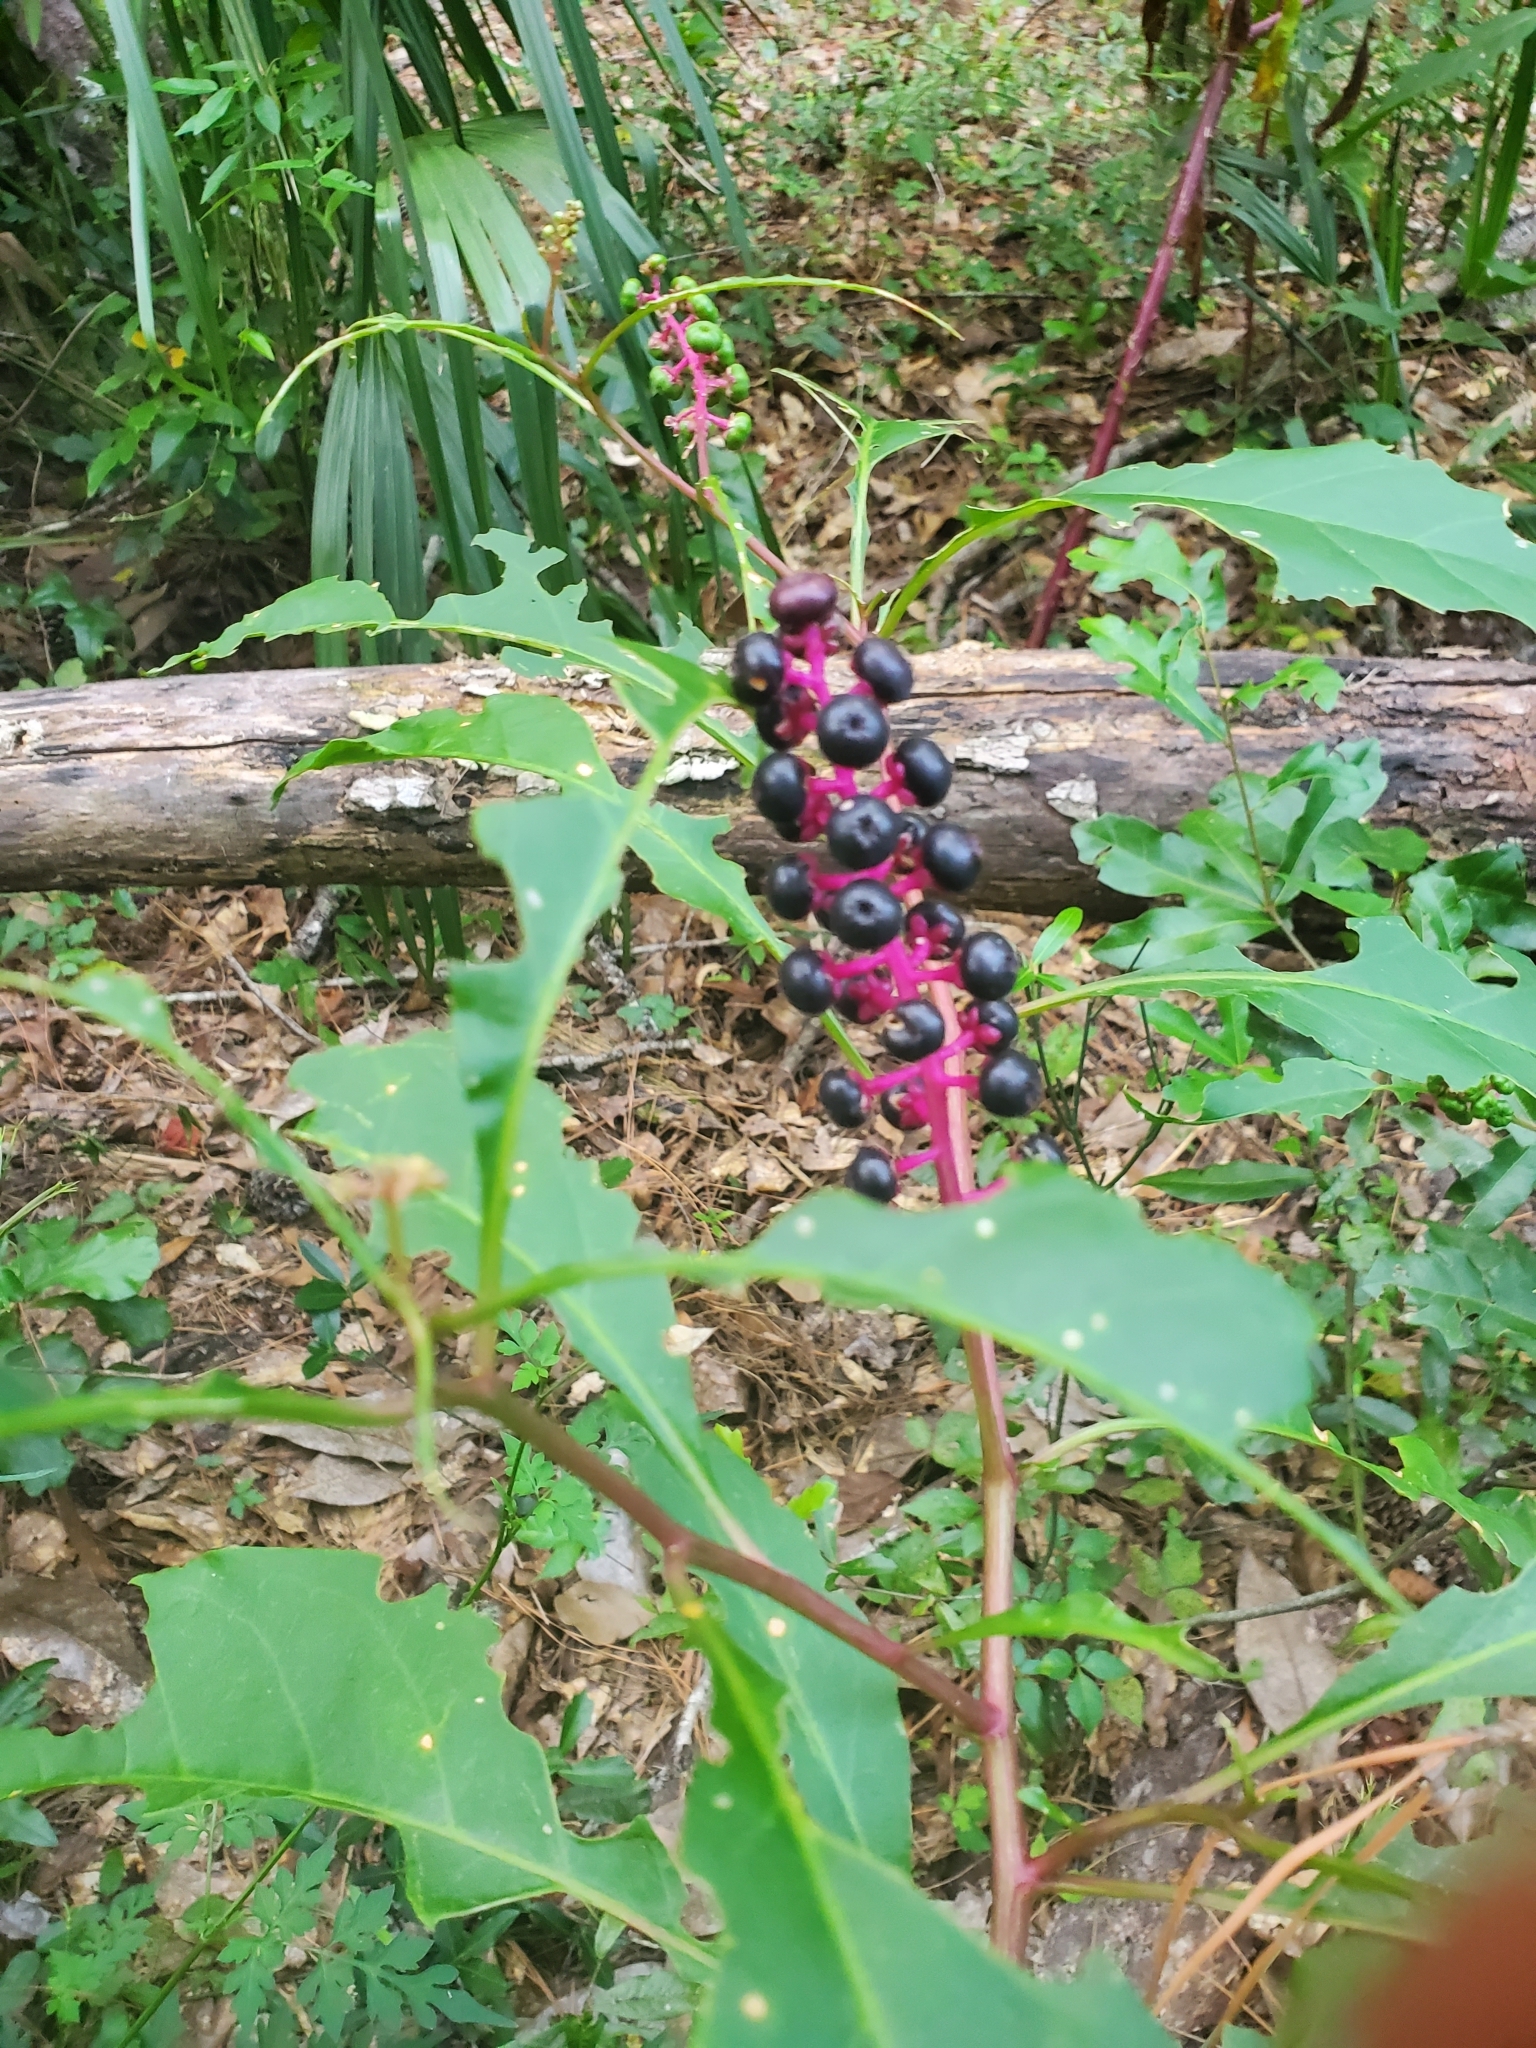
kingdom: Plantae
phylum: Tracheophyta
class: Magnoliopsida
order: Caryophyllales
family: Phytolaccaceae
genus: Phytolacca
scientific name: Phytolacca americana
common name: American pokeweed
